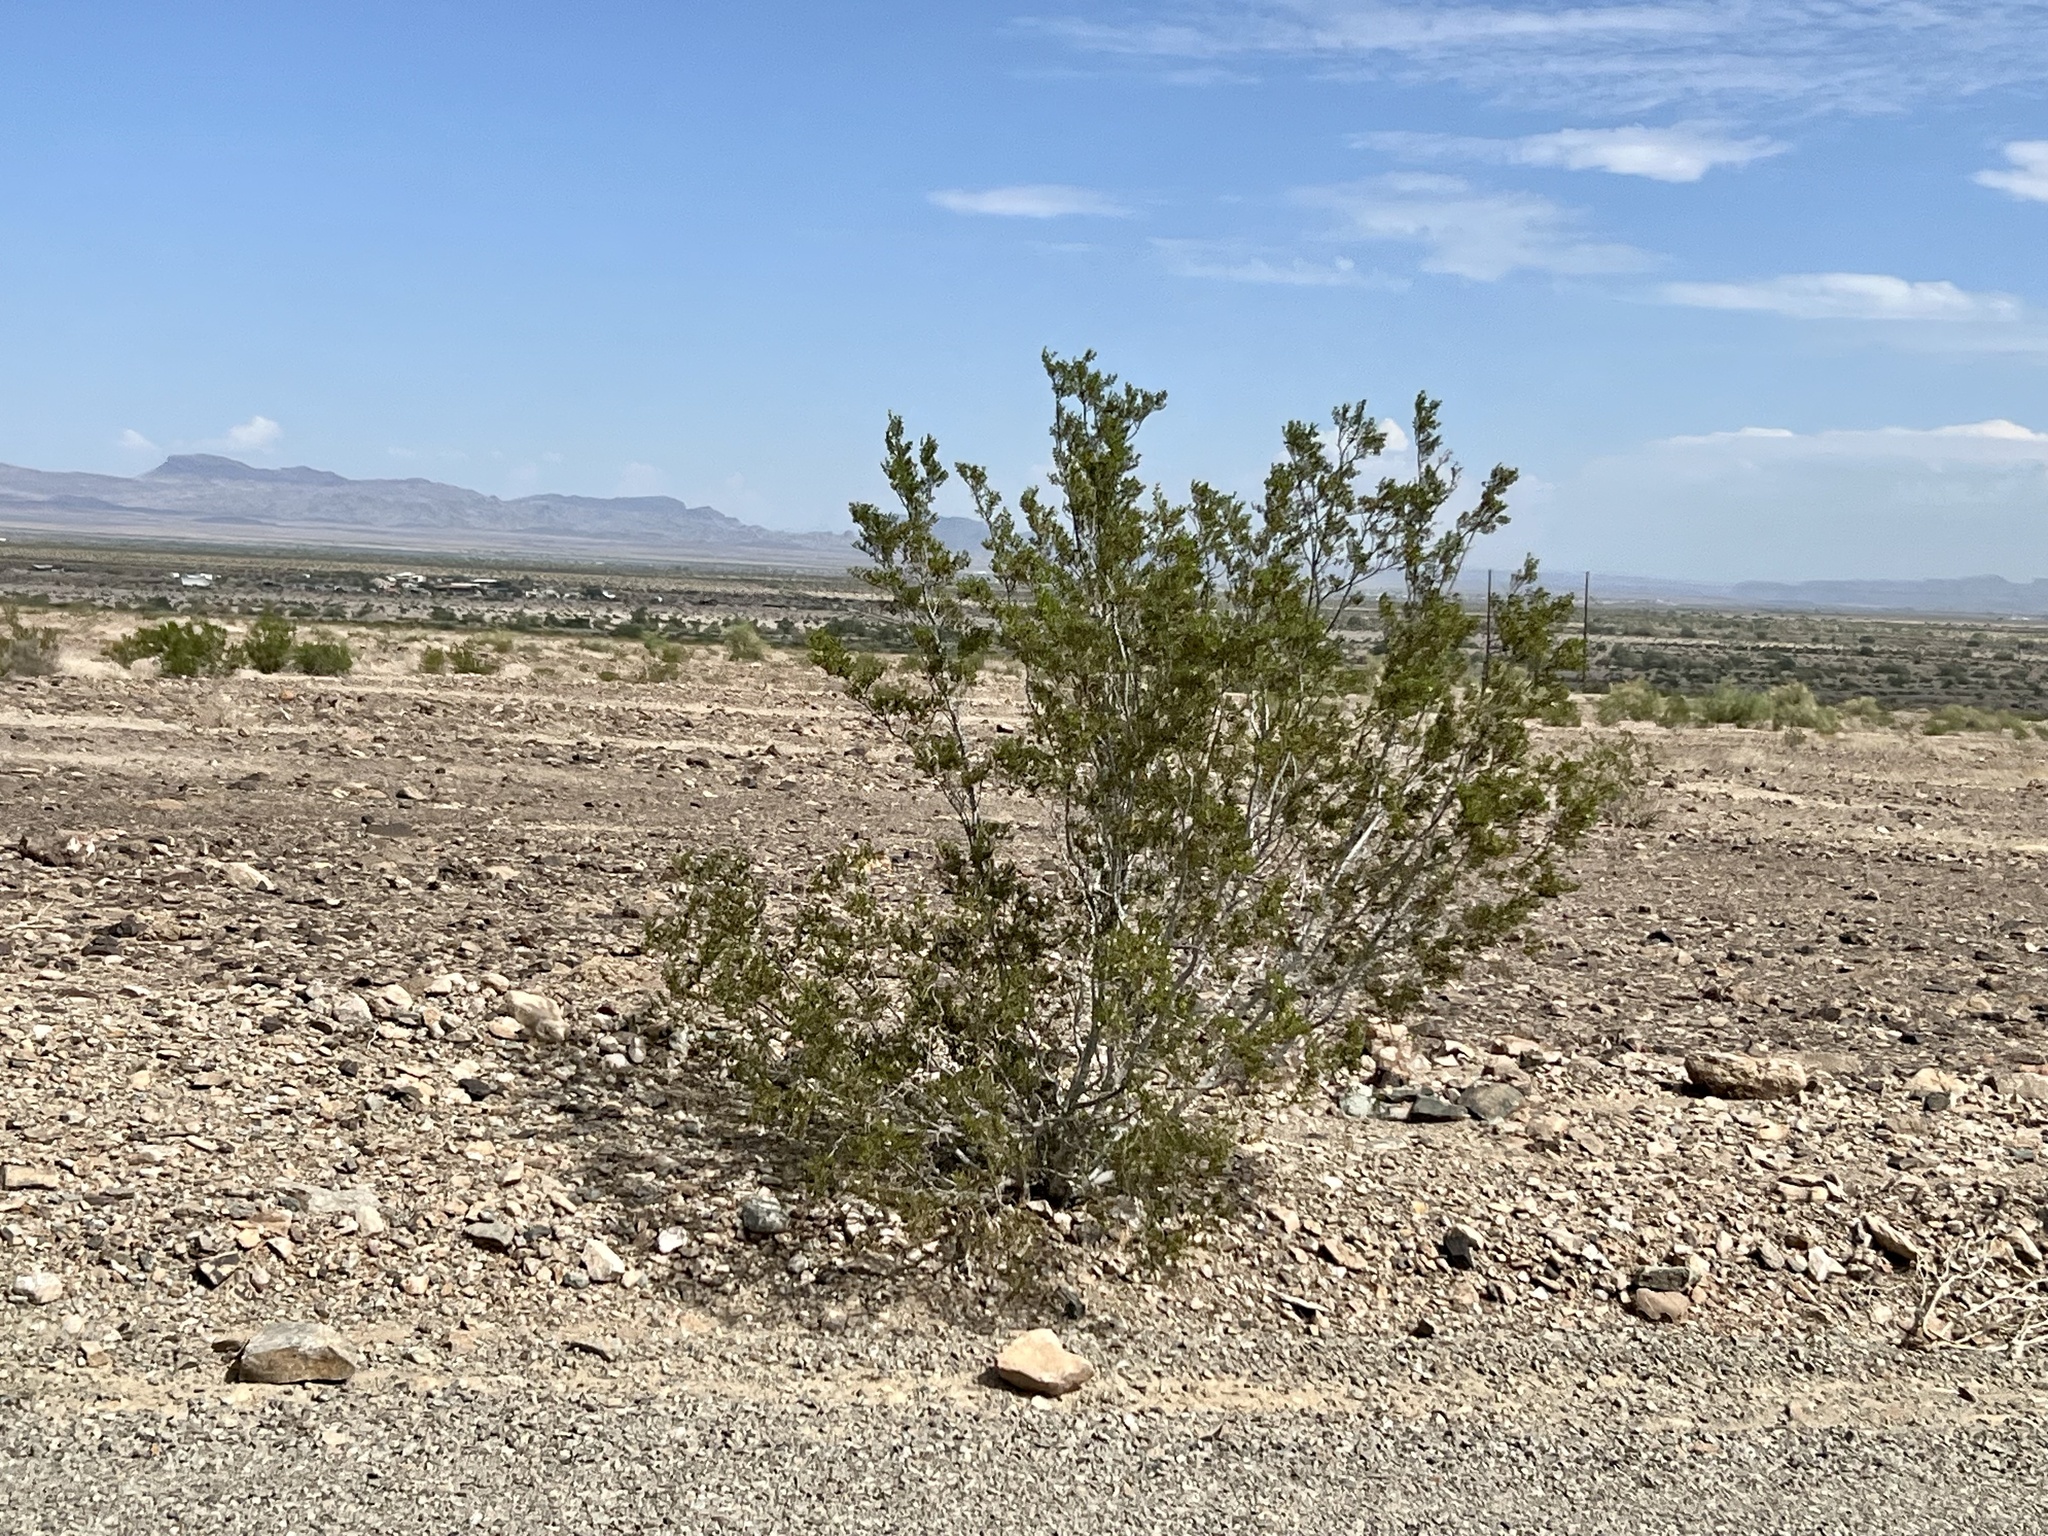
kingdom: Plantae
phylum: Tracheophyta
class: Magnoliopsida
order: Zygophyllales
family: Zygophyllaceae
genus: Larrea
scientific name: Larrea tridentata
